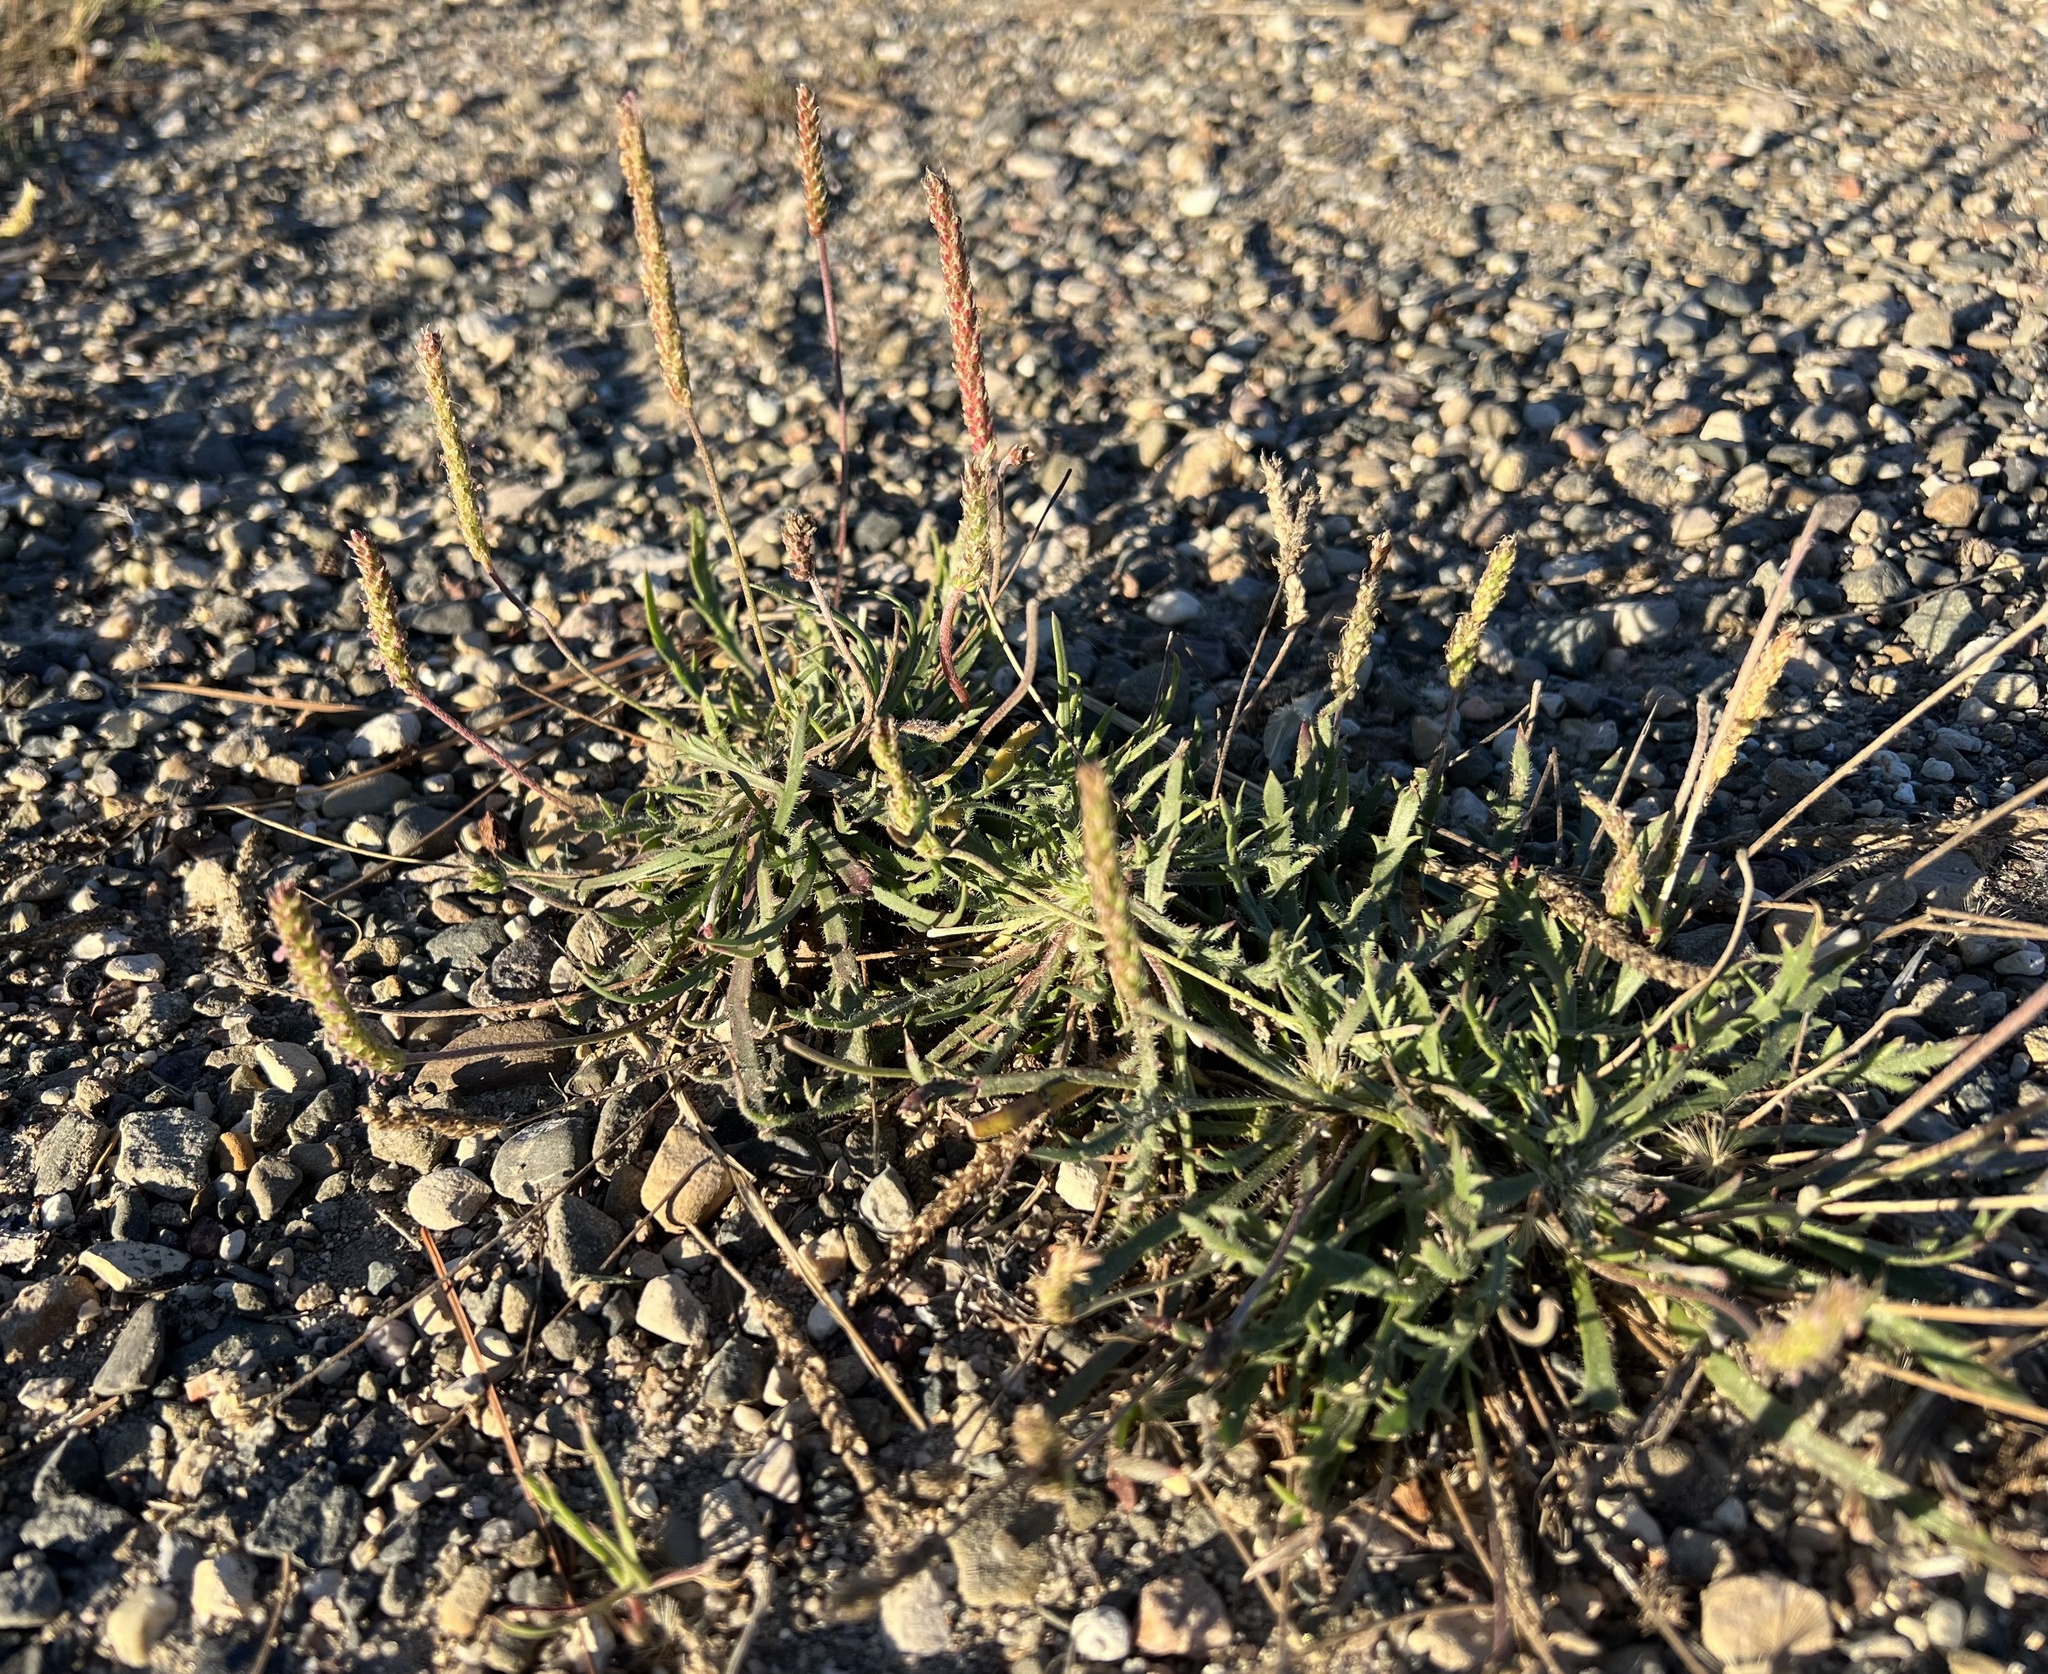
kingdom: Plantae
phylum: Tracheophyta
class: Magnoliopsida
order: Lamiales
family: Plantaginaceae
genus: Plantago
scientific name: Plantago coronopus
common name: Buck's-horn plantain
